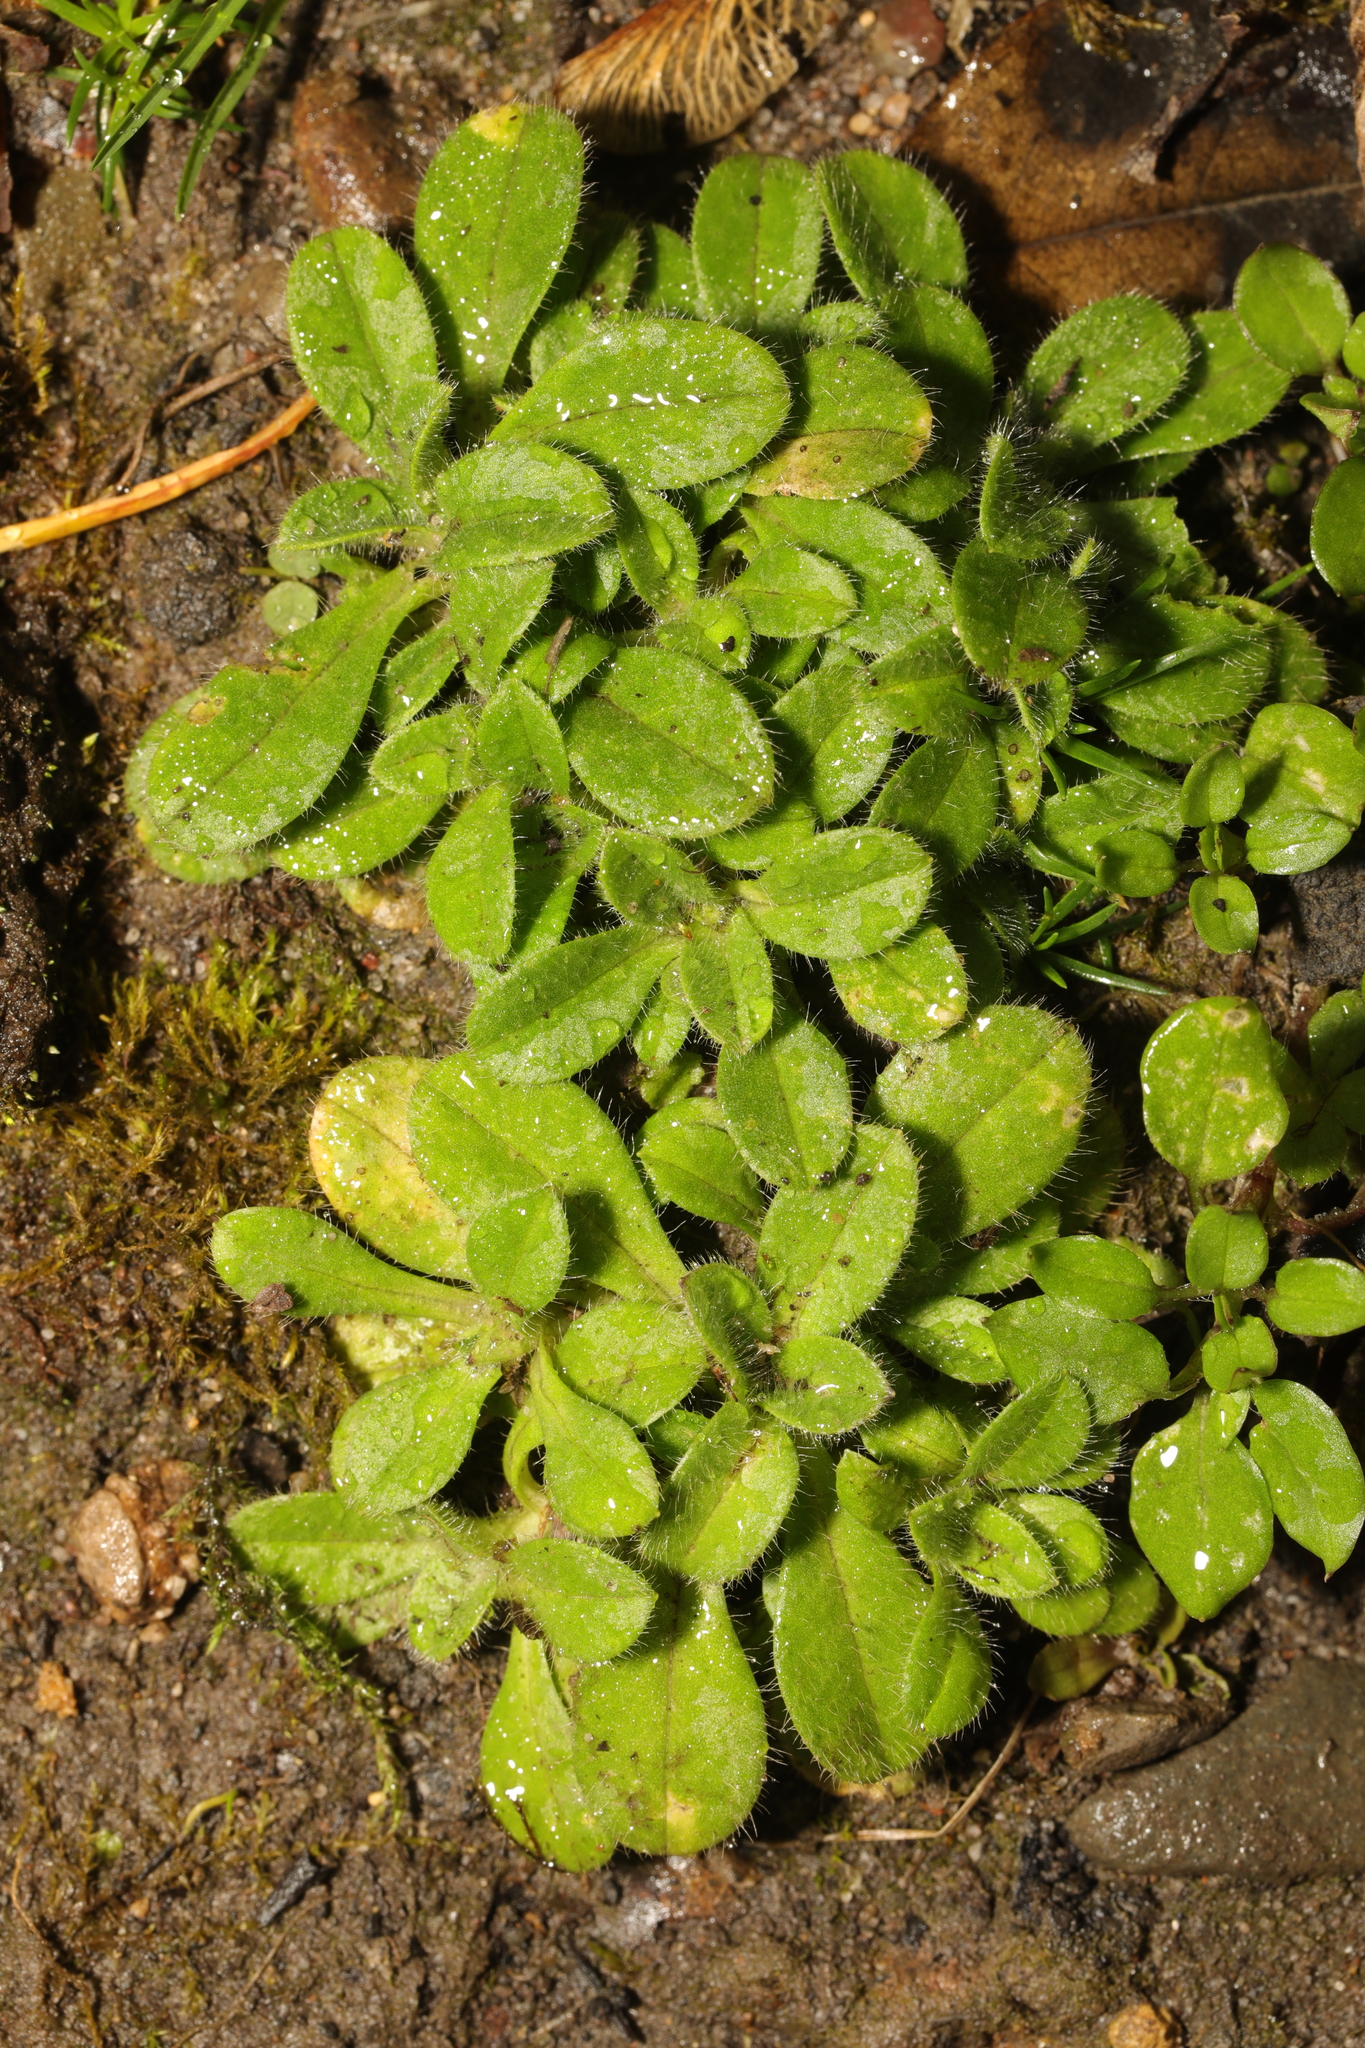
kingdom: Plantae
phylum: Tracheophyta
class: Magnoliopsida
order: Caryophyllales
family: Caryophyllaceae
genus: Cerastium
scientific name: Cerastium glomeratum
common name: Sticky chickweed
